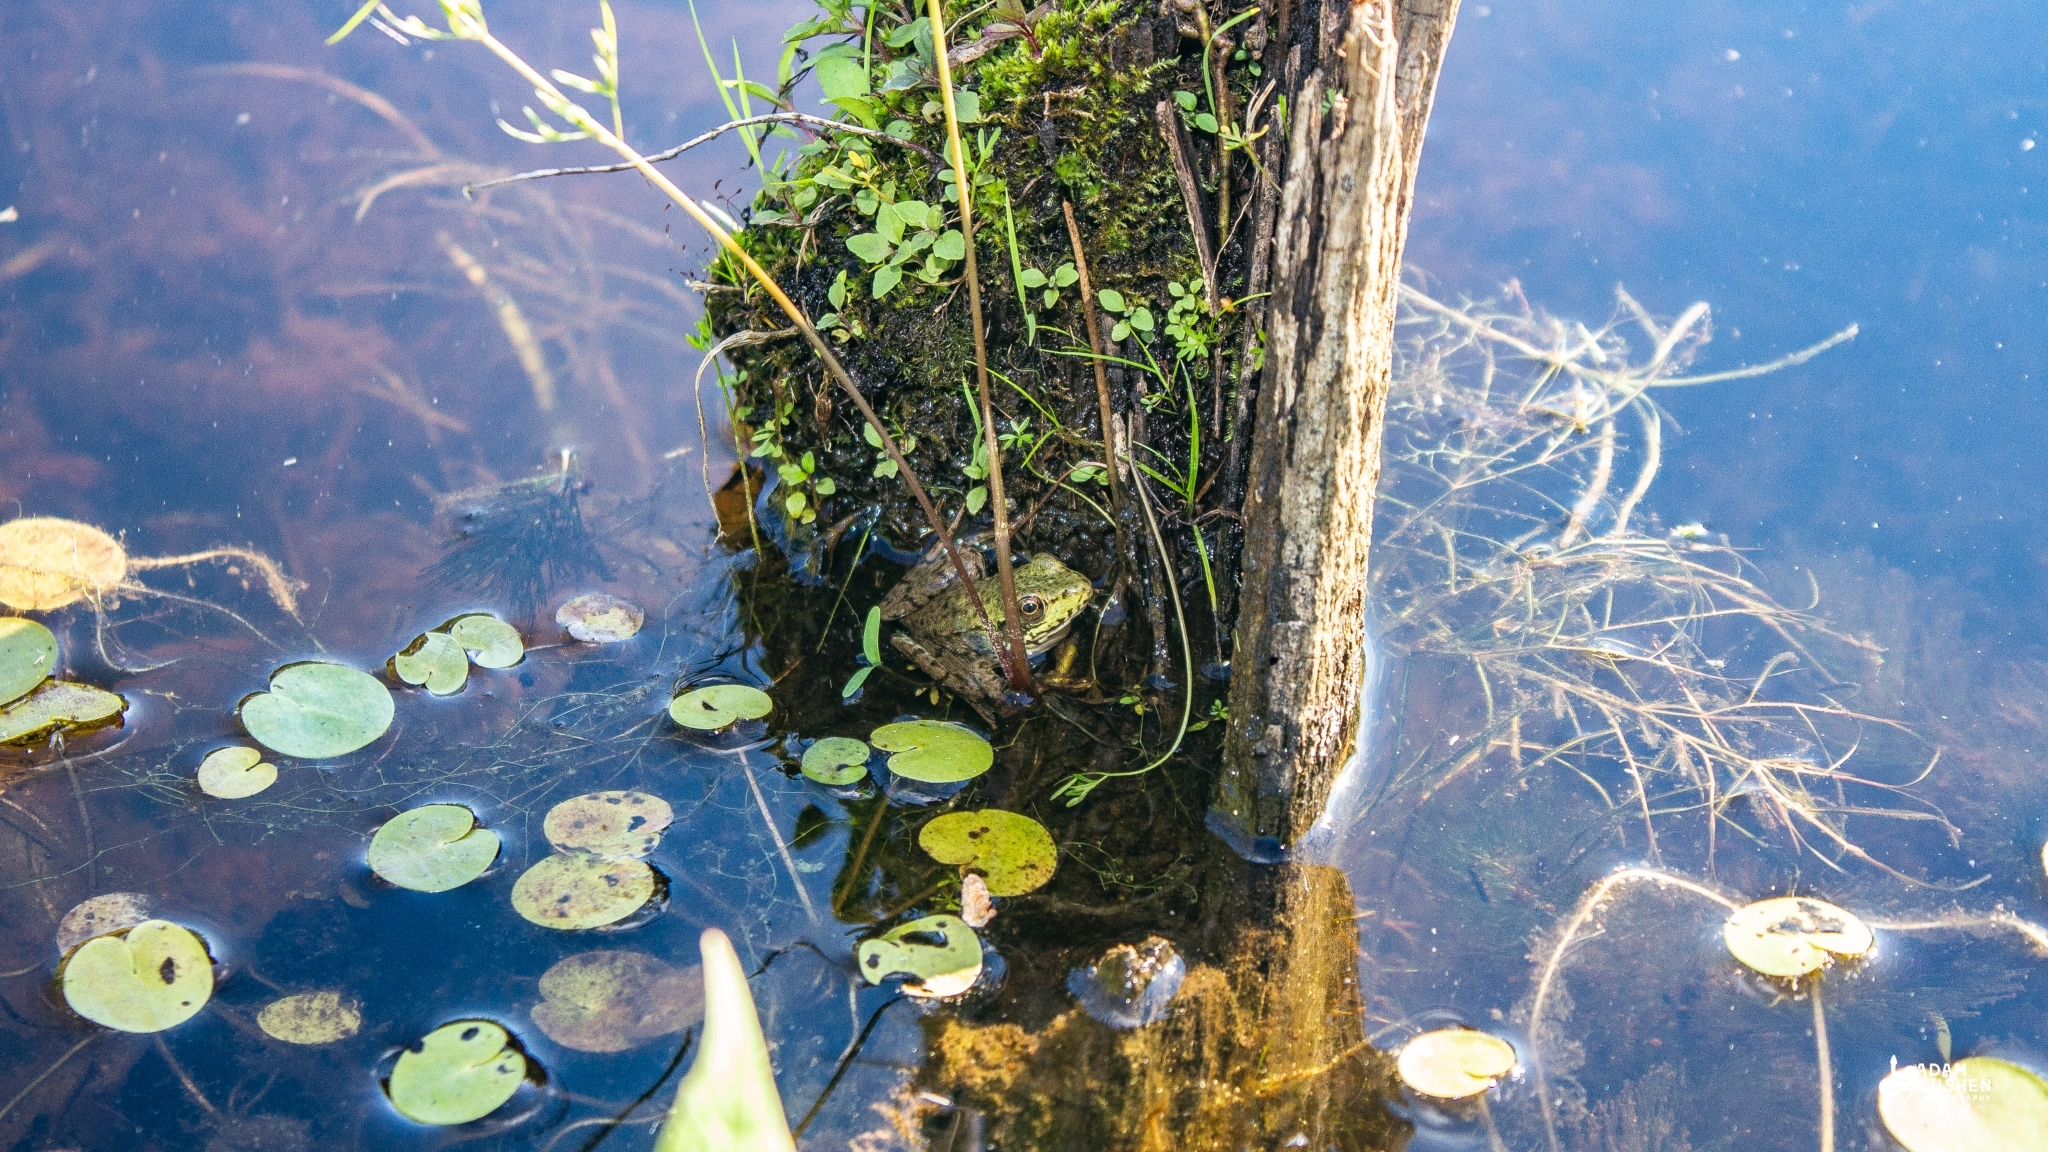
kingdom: Animalia
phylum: Chordata
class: Amphibia
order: Anura
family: Ranidae
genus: Lithobates
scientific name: Lithobates clamitans
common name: Green frog
